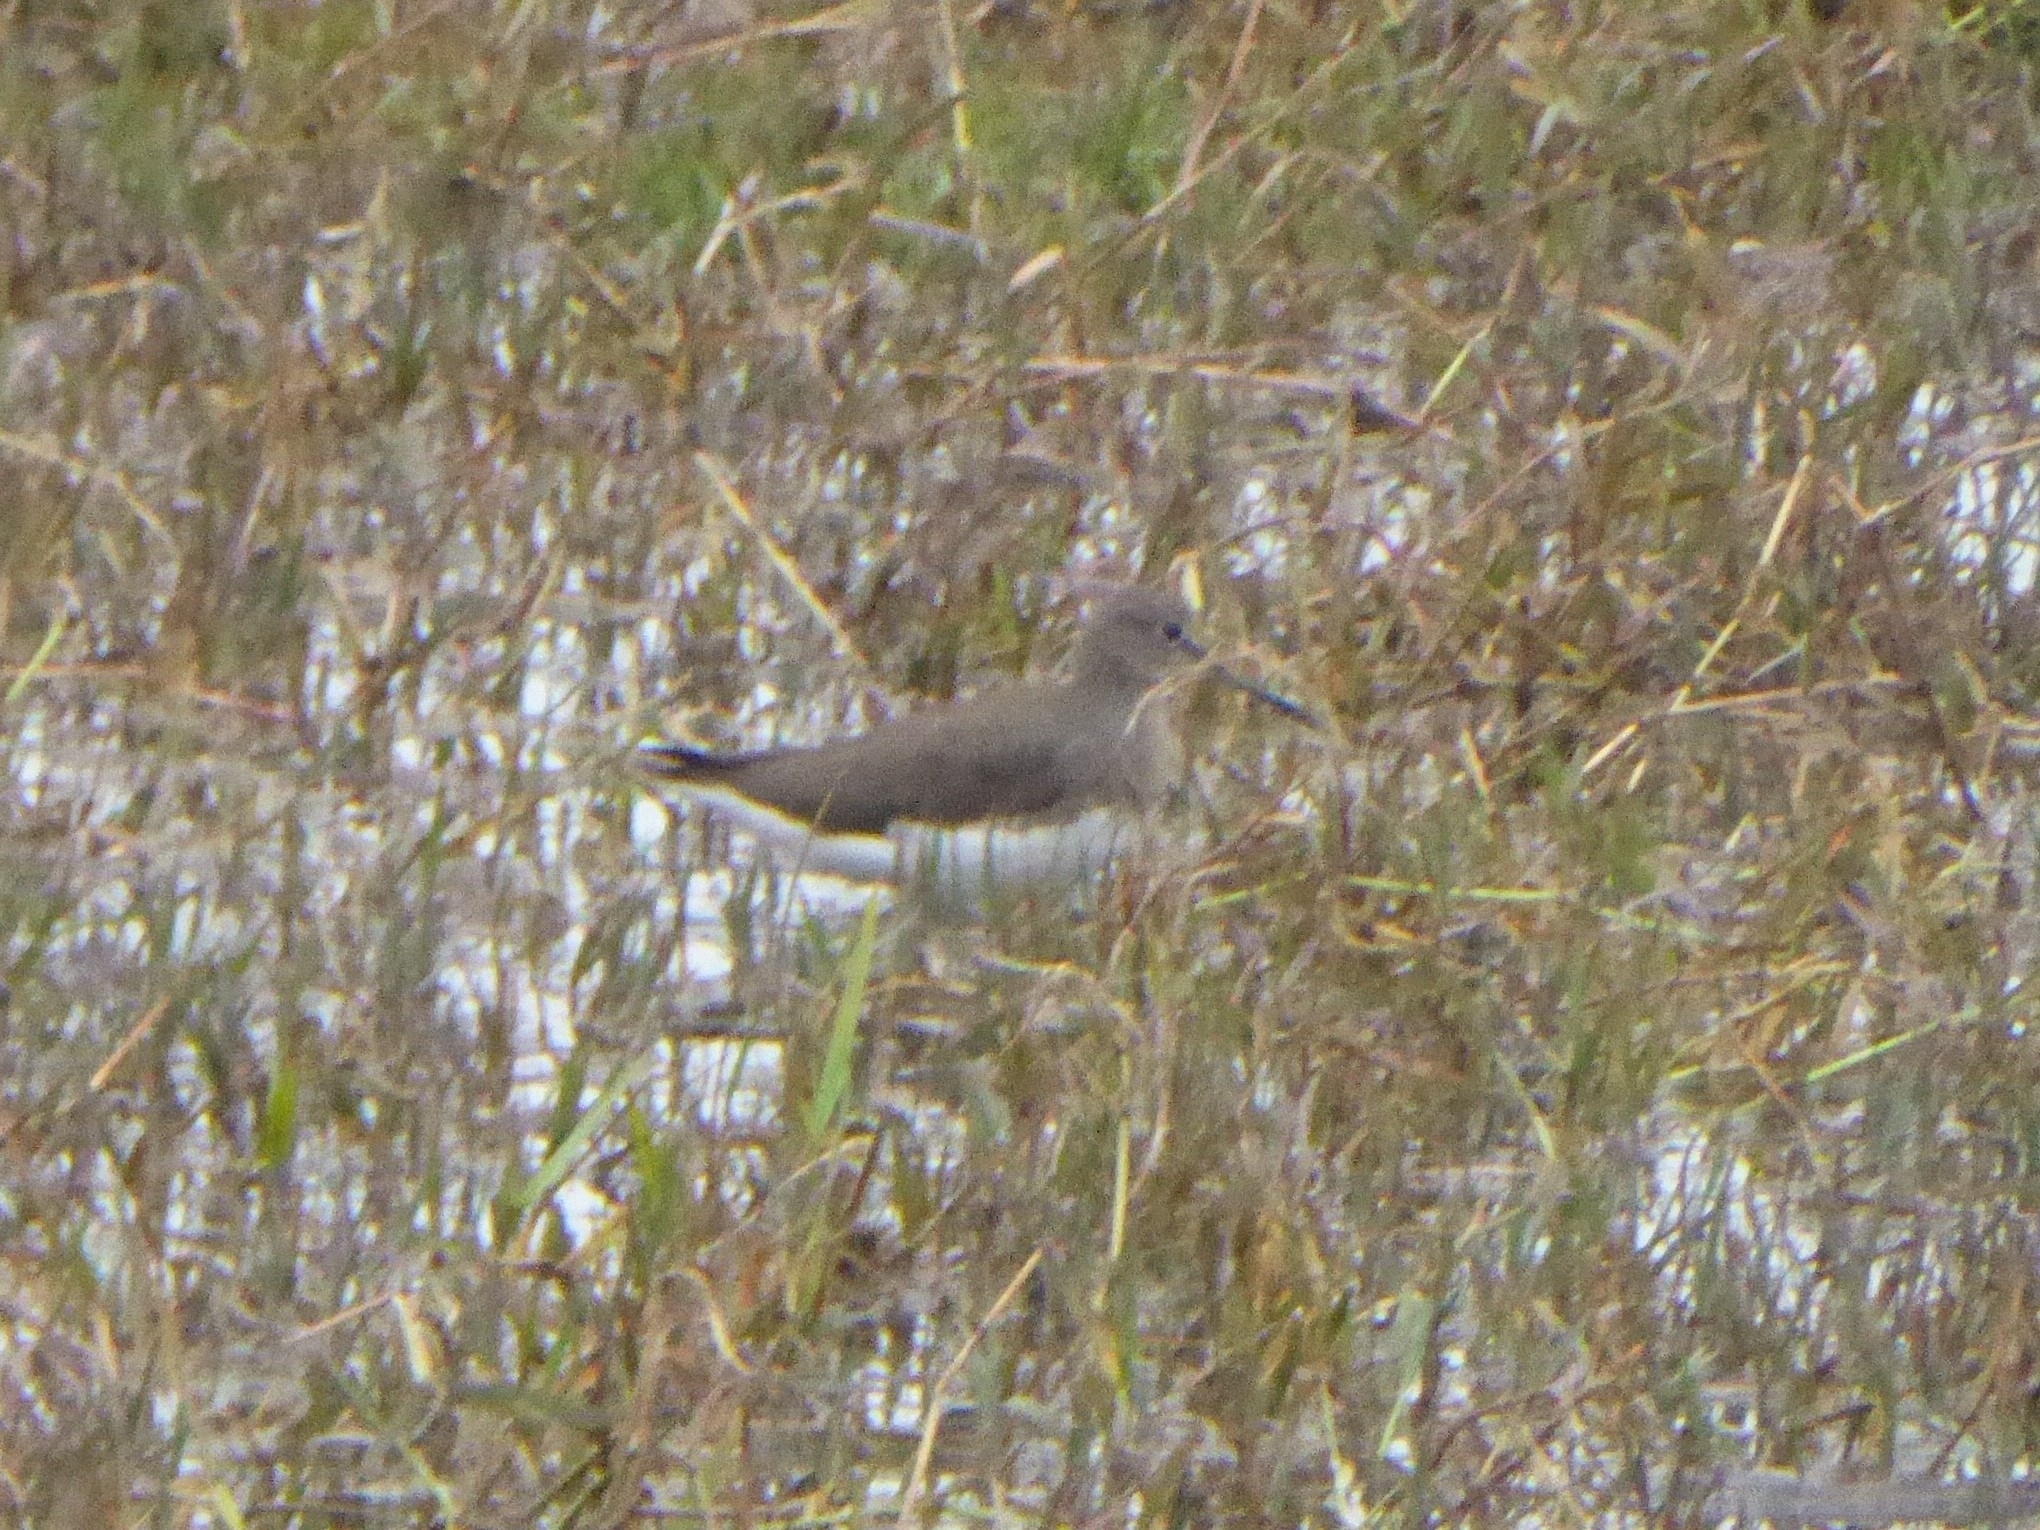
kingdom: Animalia
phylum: Chordata
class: Aves
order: Charadriiformes
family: Scolopacidae
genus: Tringa
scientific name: Tringa ochropus
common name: Green sandpiper
